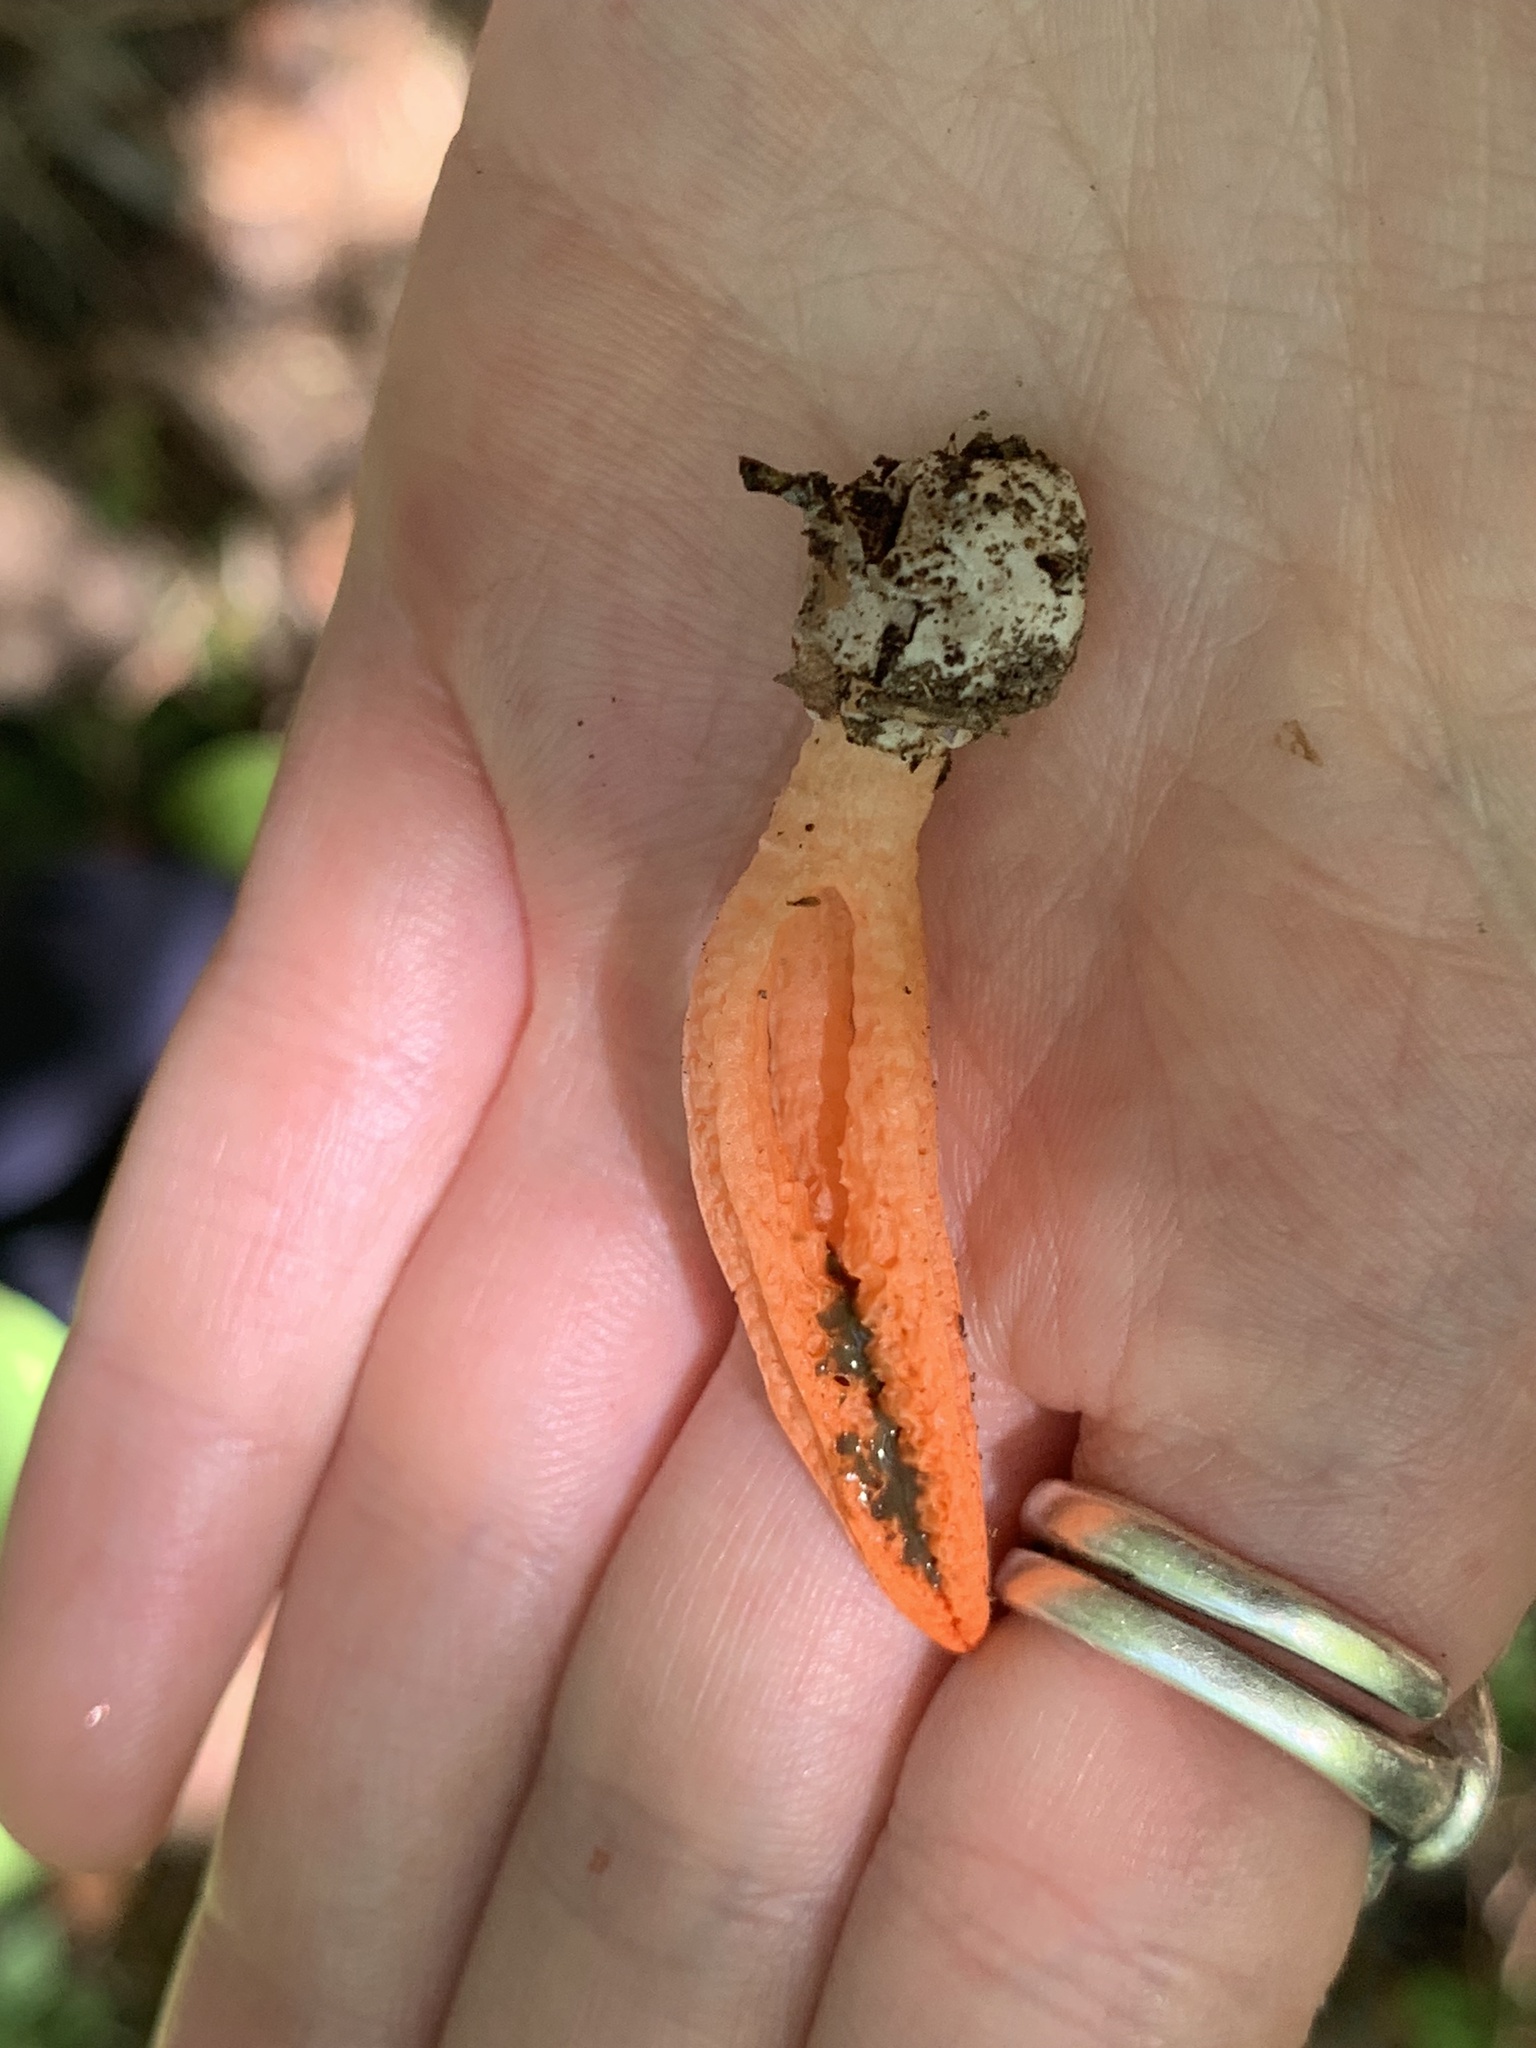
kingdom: Fungi
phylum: Basidiomycota
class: Agaricomycetes
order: Phallales
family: Phallaceae
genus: Pseudocolus
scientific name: Pseudocolus fusiformis
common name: Stinky squid
